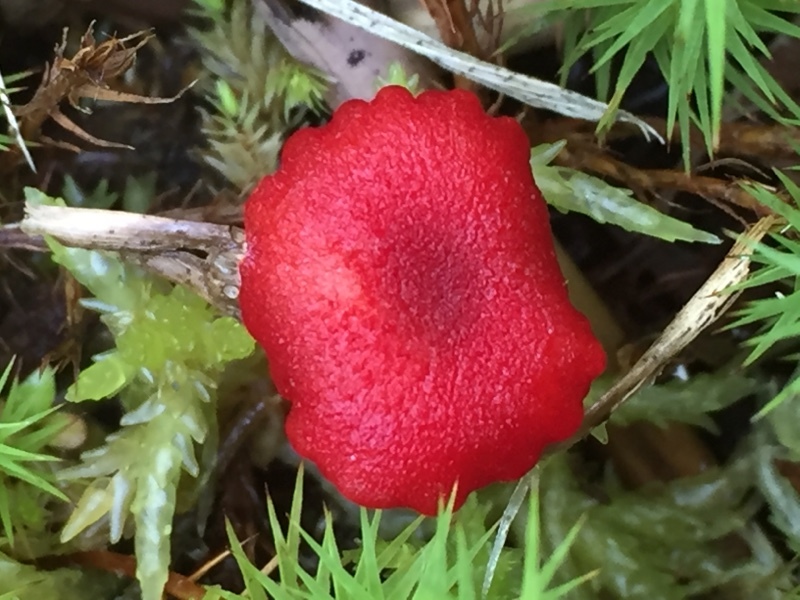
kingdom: Fungi
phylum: Basidiomycota
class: Agaricomycetes
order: Agaricales
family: Hygrophoraceae
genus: Hygrocybe
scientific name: Hygrocybe miniata
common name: Vermilion waxcap
